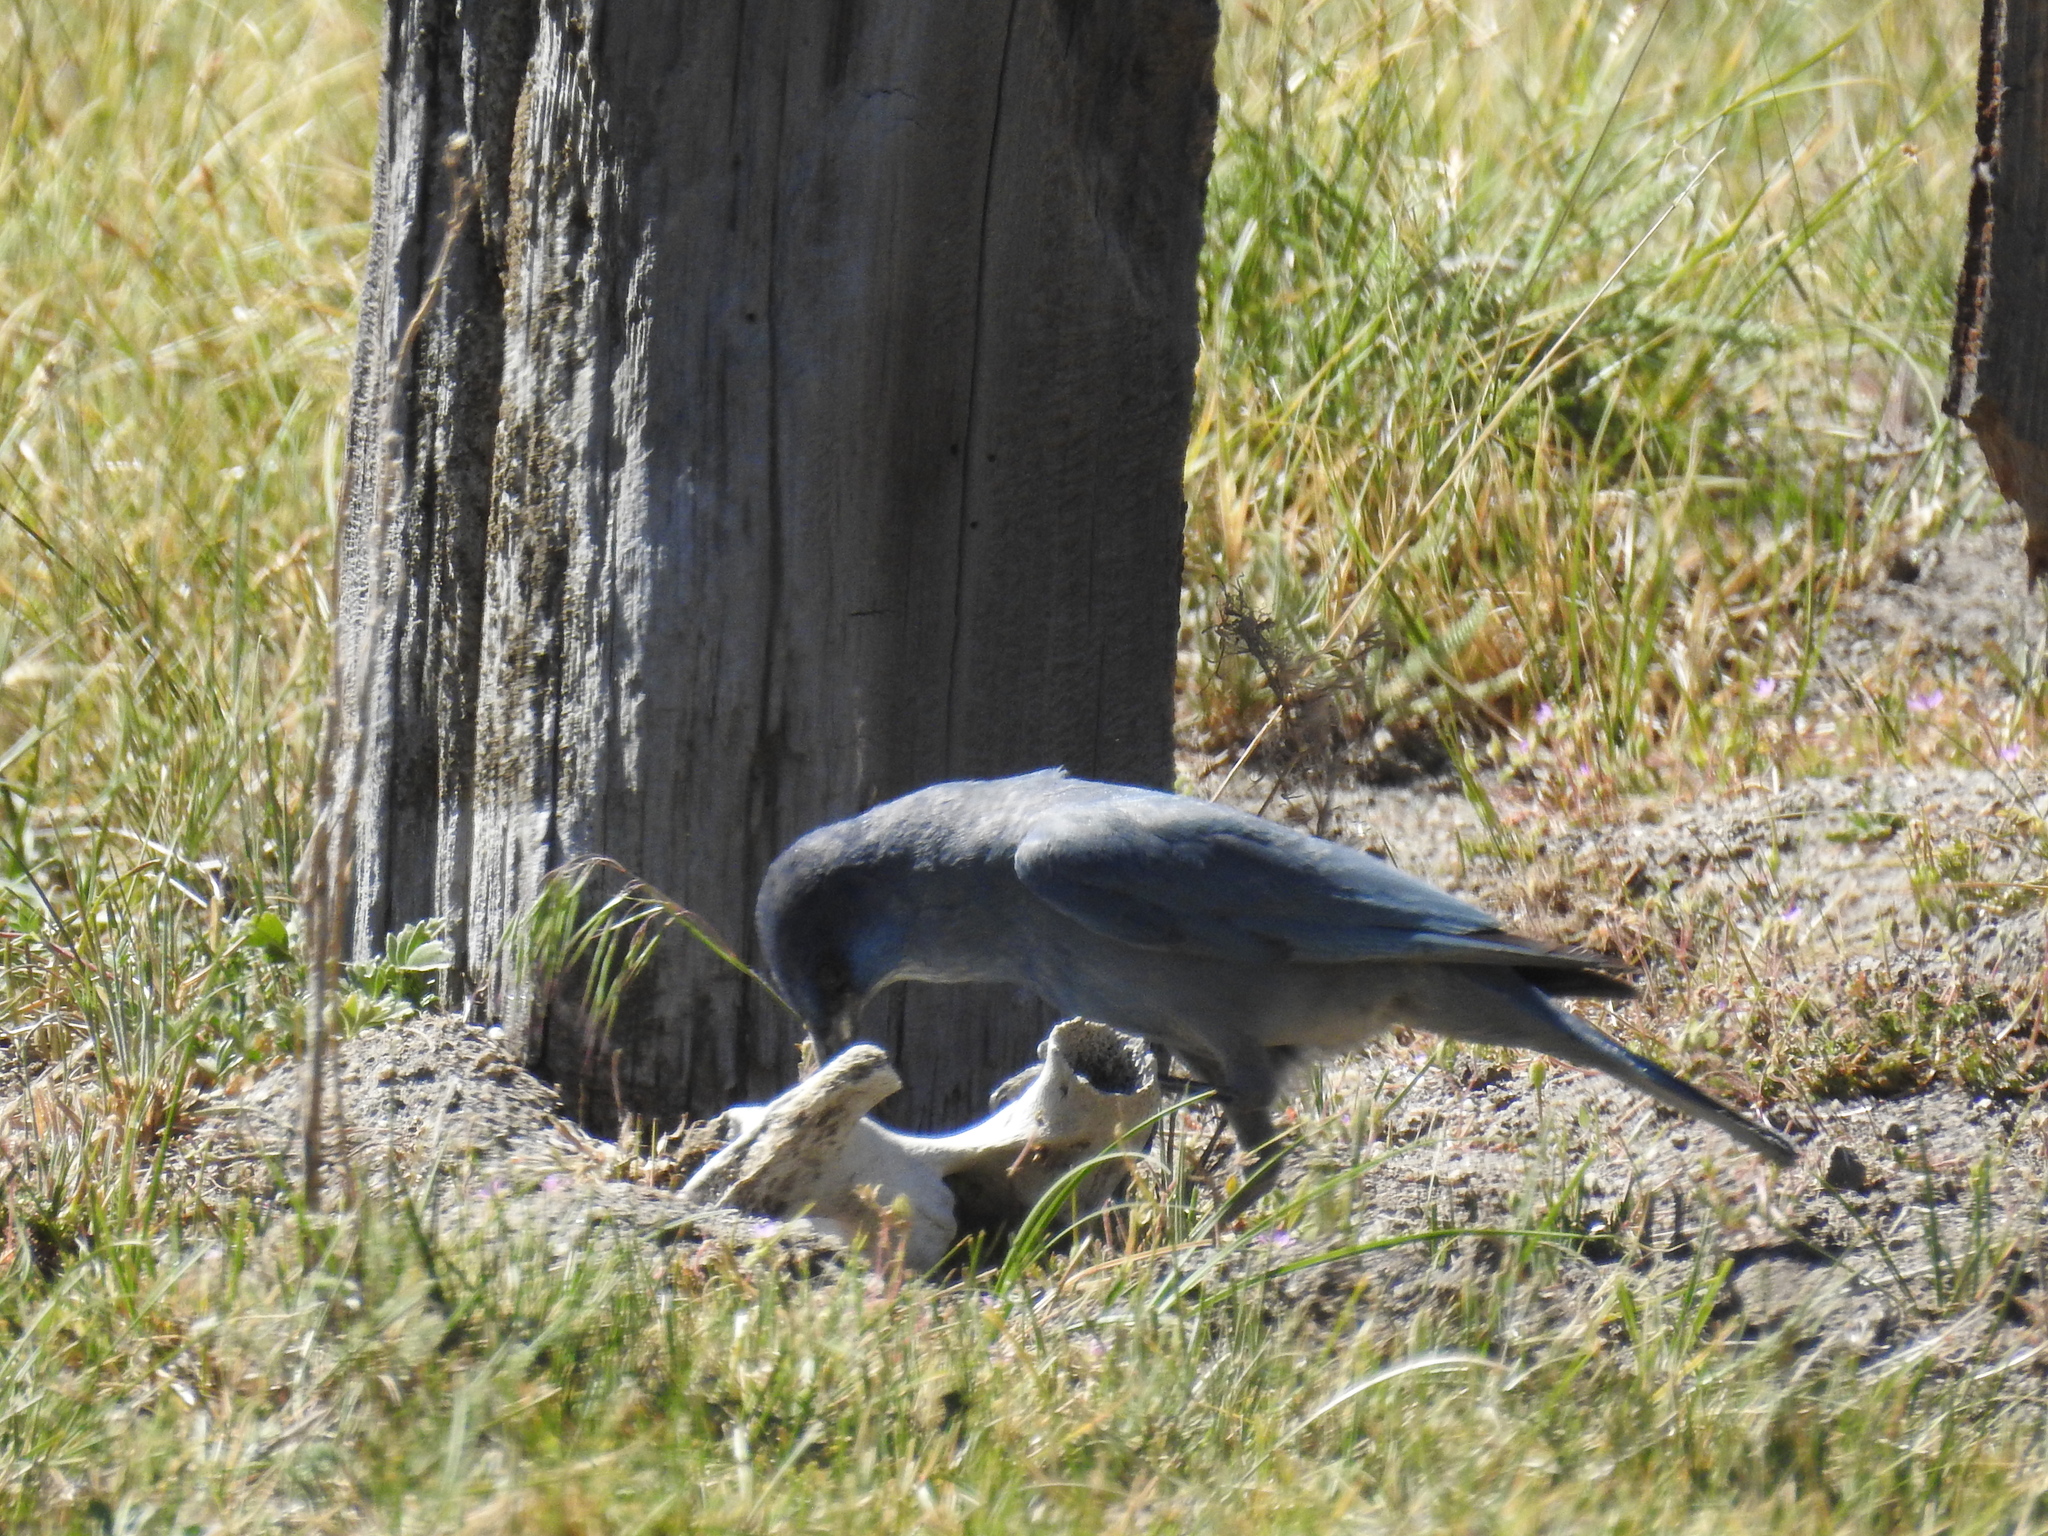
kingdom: Animalia
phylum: Chordata
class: Aves
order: Passeriformes
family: Corvidae
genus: Gymnorhinus
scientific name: Gymnorhinus cyanocephalus
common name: Pinyon jay
